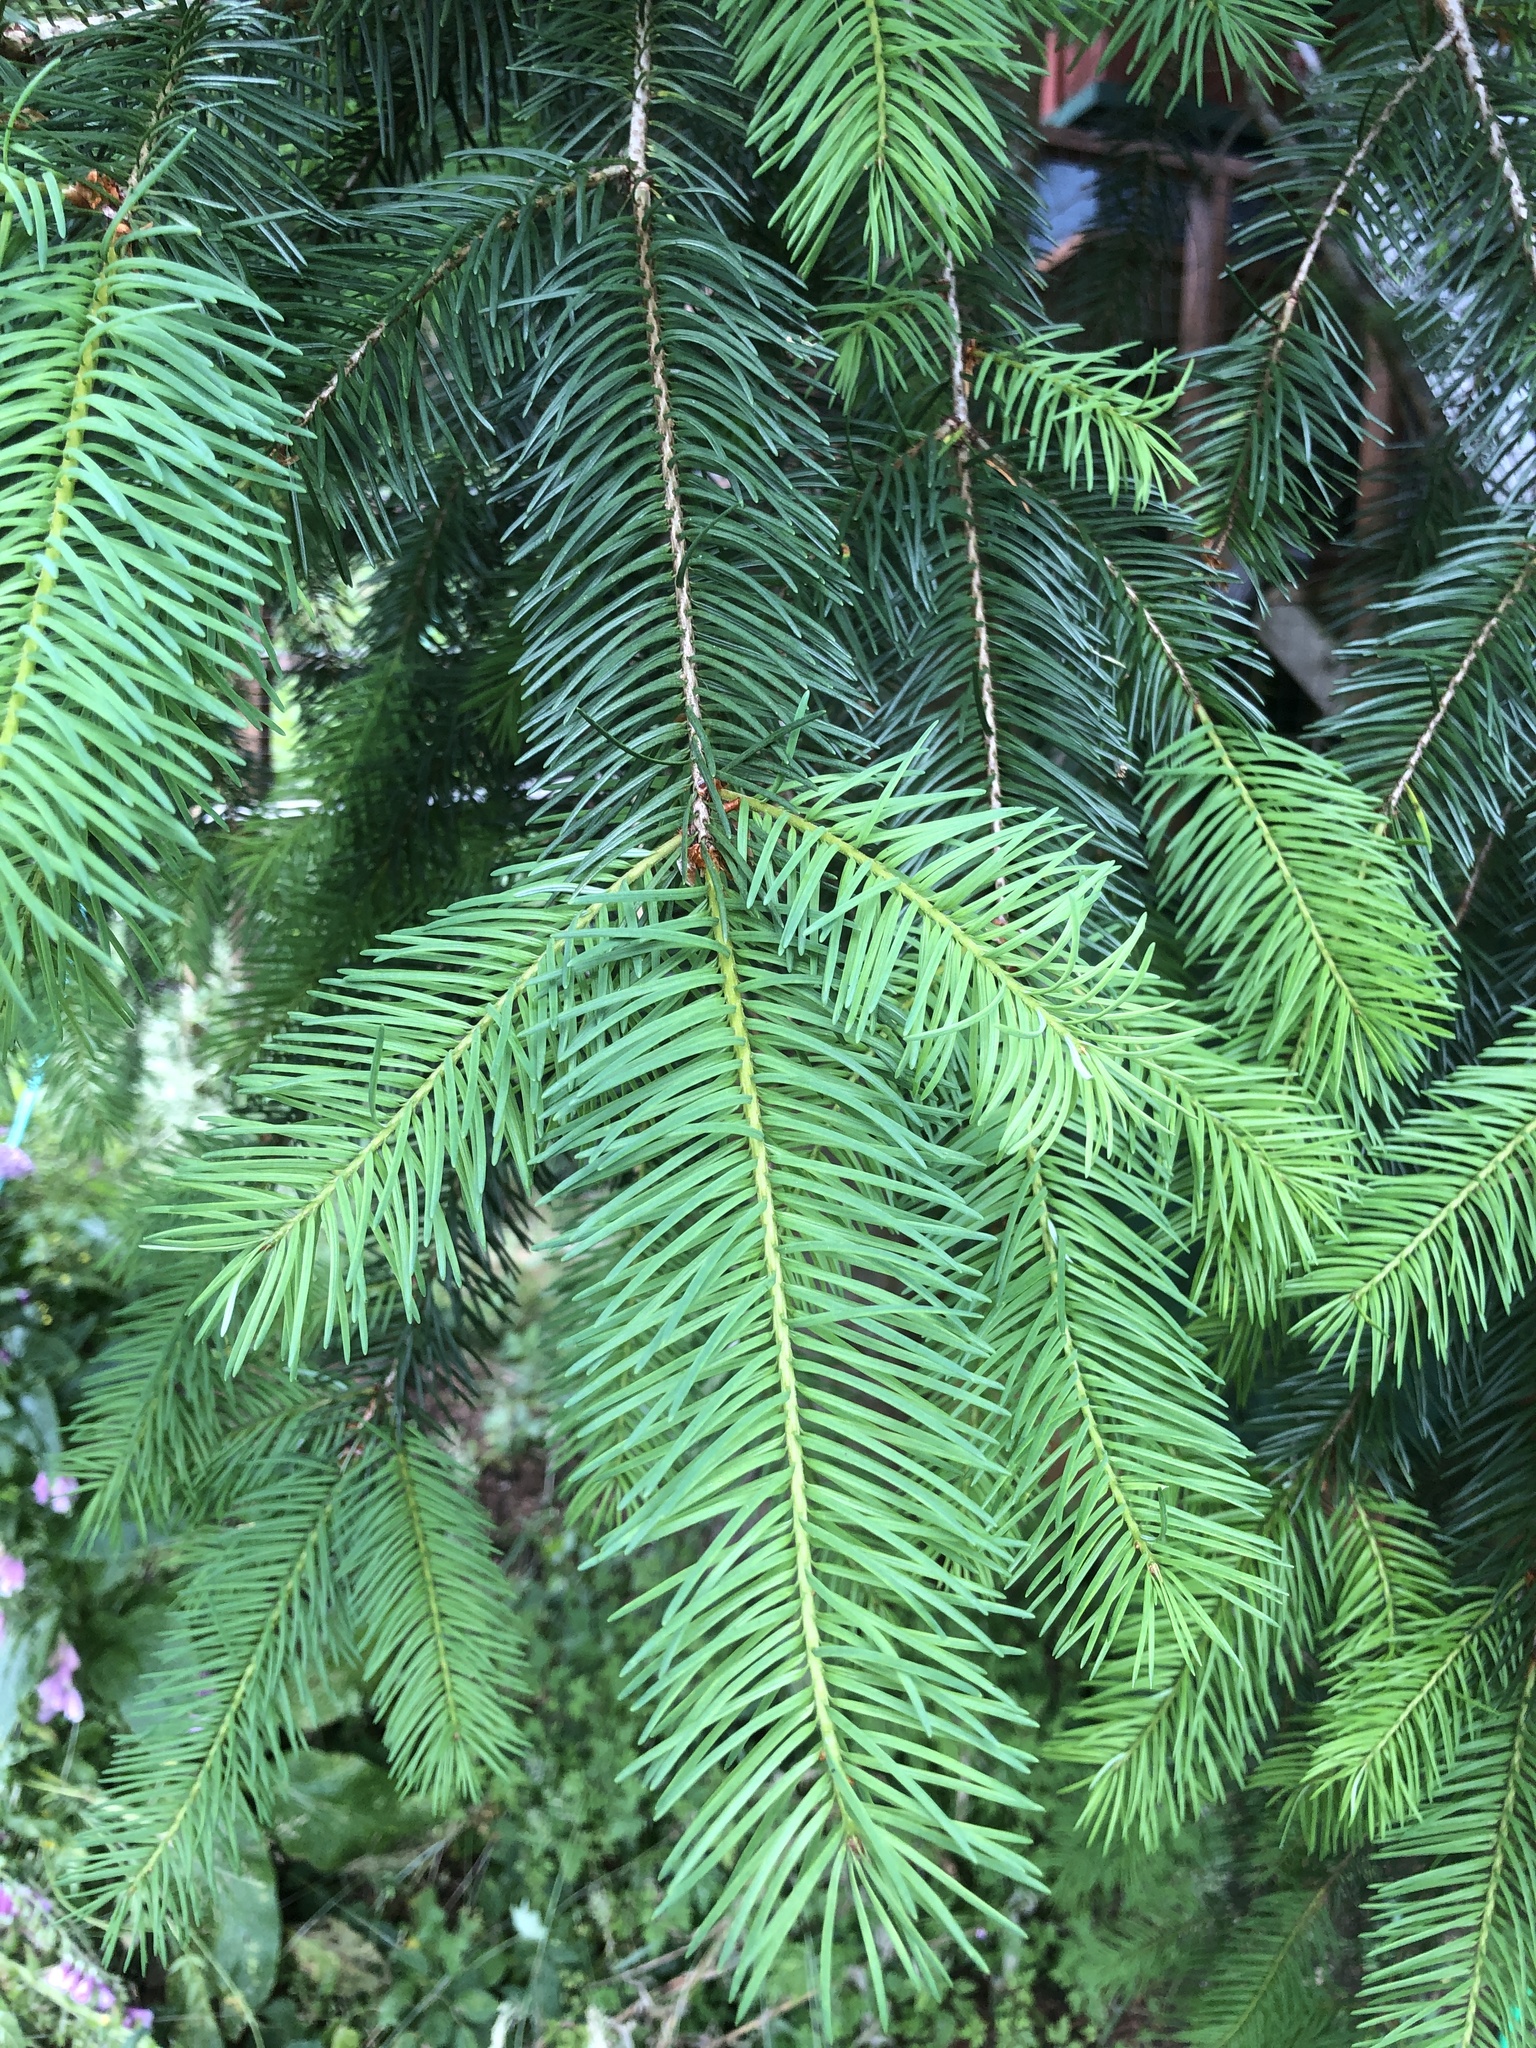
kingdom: Plantae
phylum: Tracheophyta
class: Pinopsida
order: Pinales
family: Pinaceae
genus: Pseudotsuga
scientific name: Pseudotsuga menziesii
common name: Douglas fir
